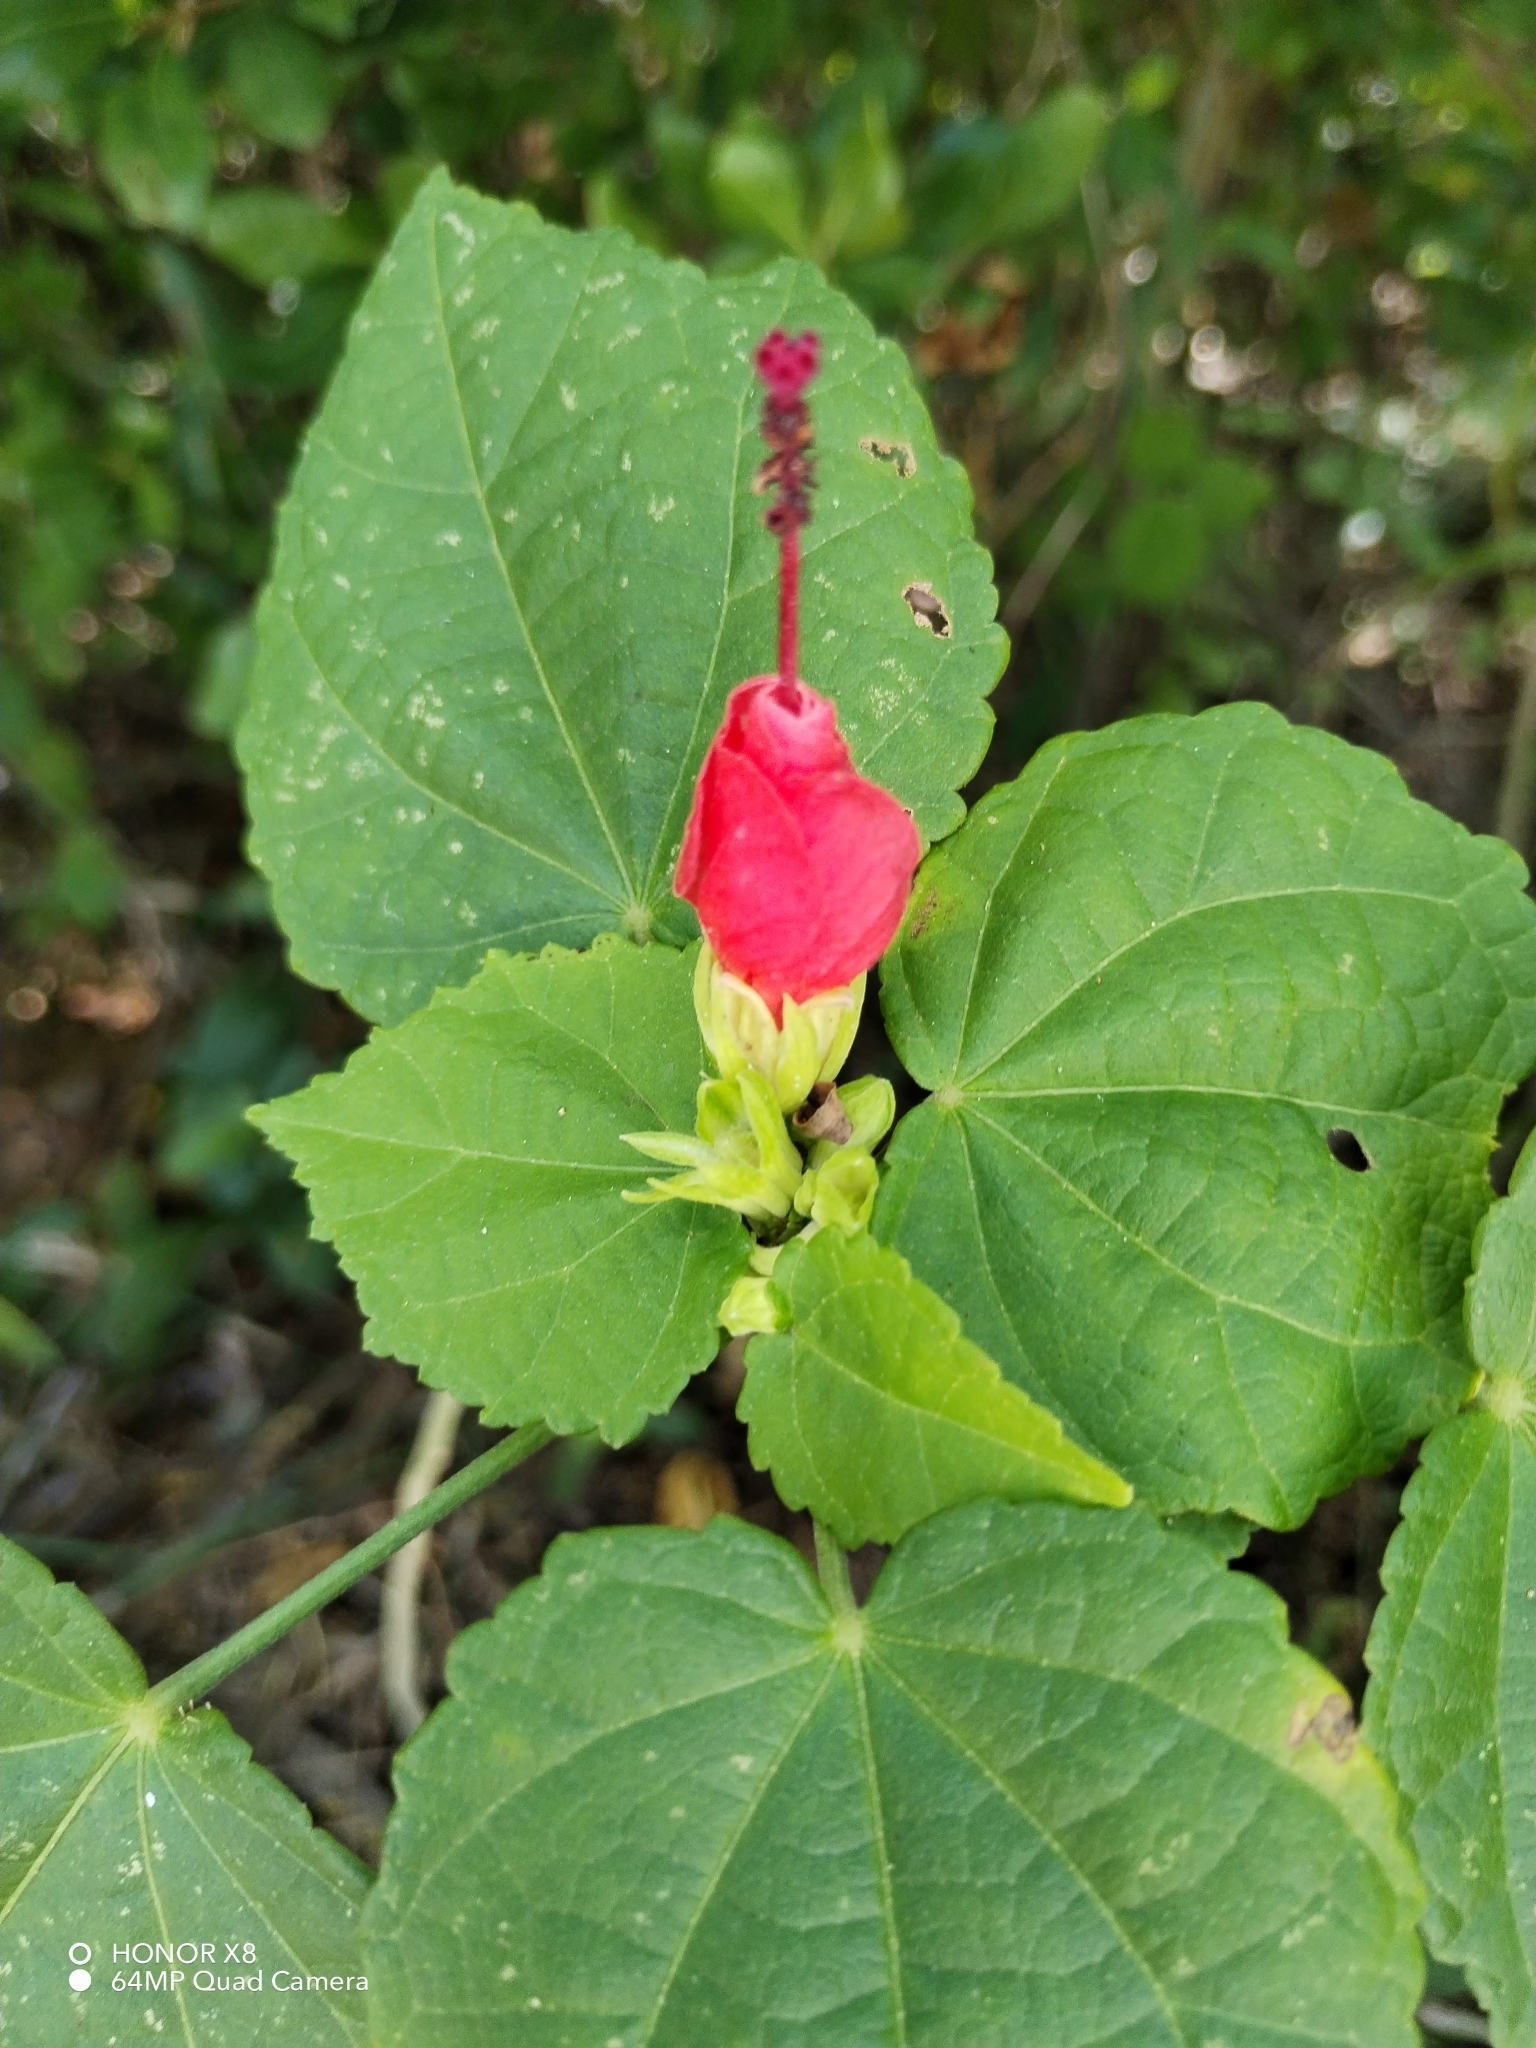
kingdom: Plantae
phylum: Tracheophyta
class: Magnoliopsida
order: Malvales
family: Malvaceae
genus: Malvaviscus
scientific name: Malvaviscus arboreus
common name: Wax mallow
